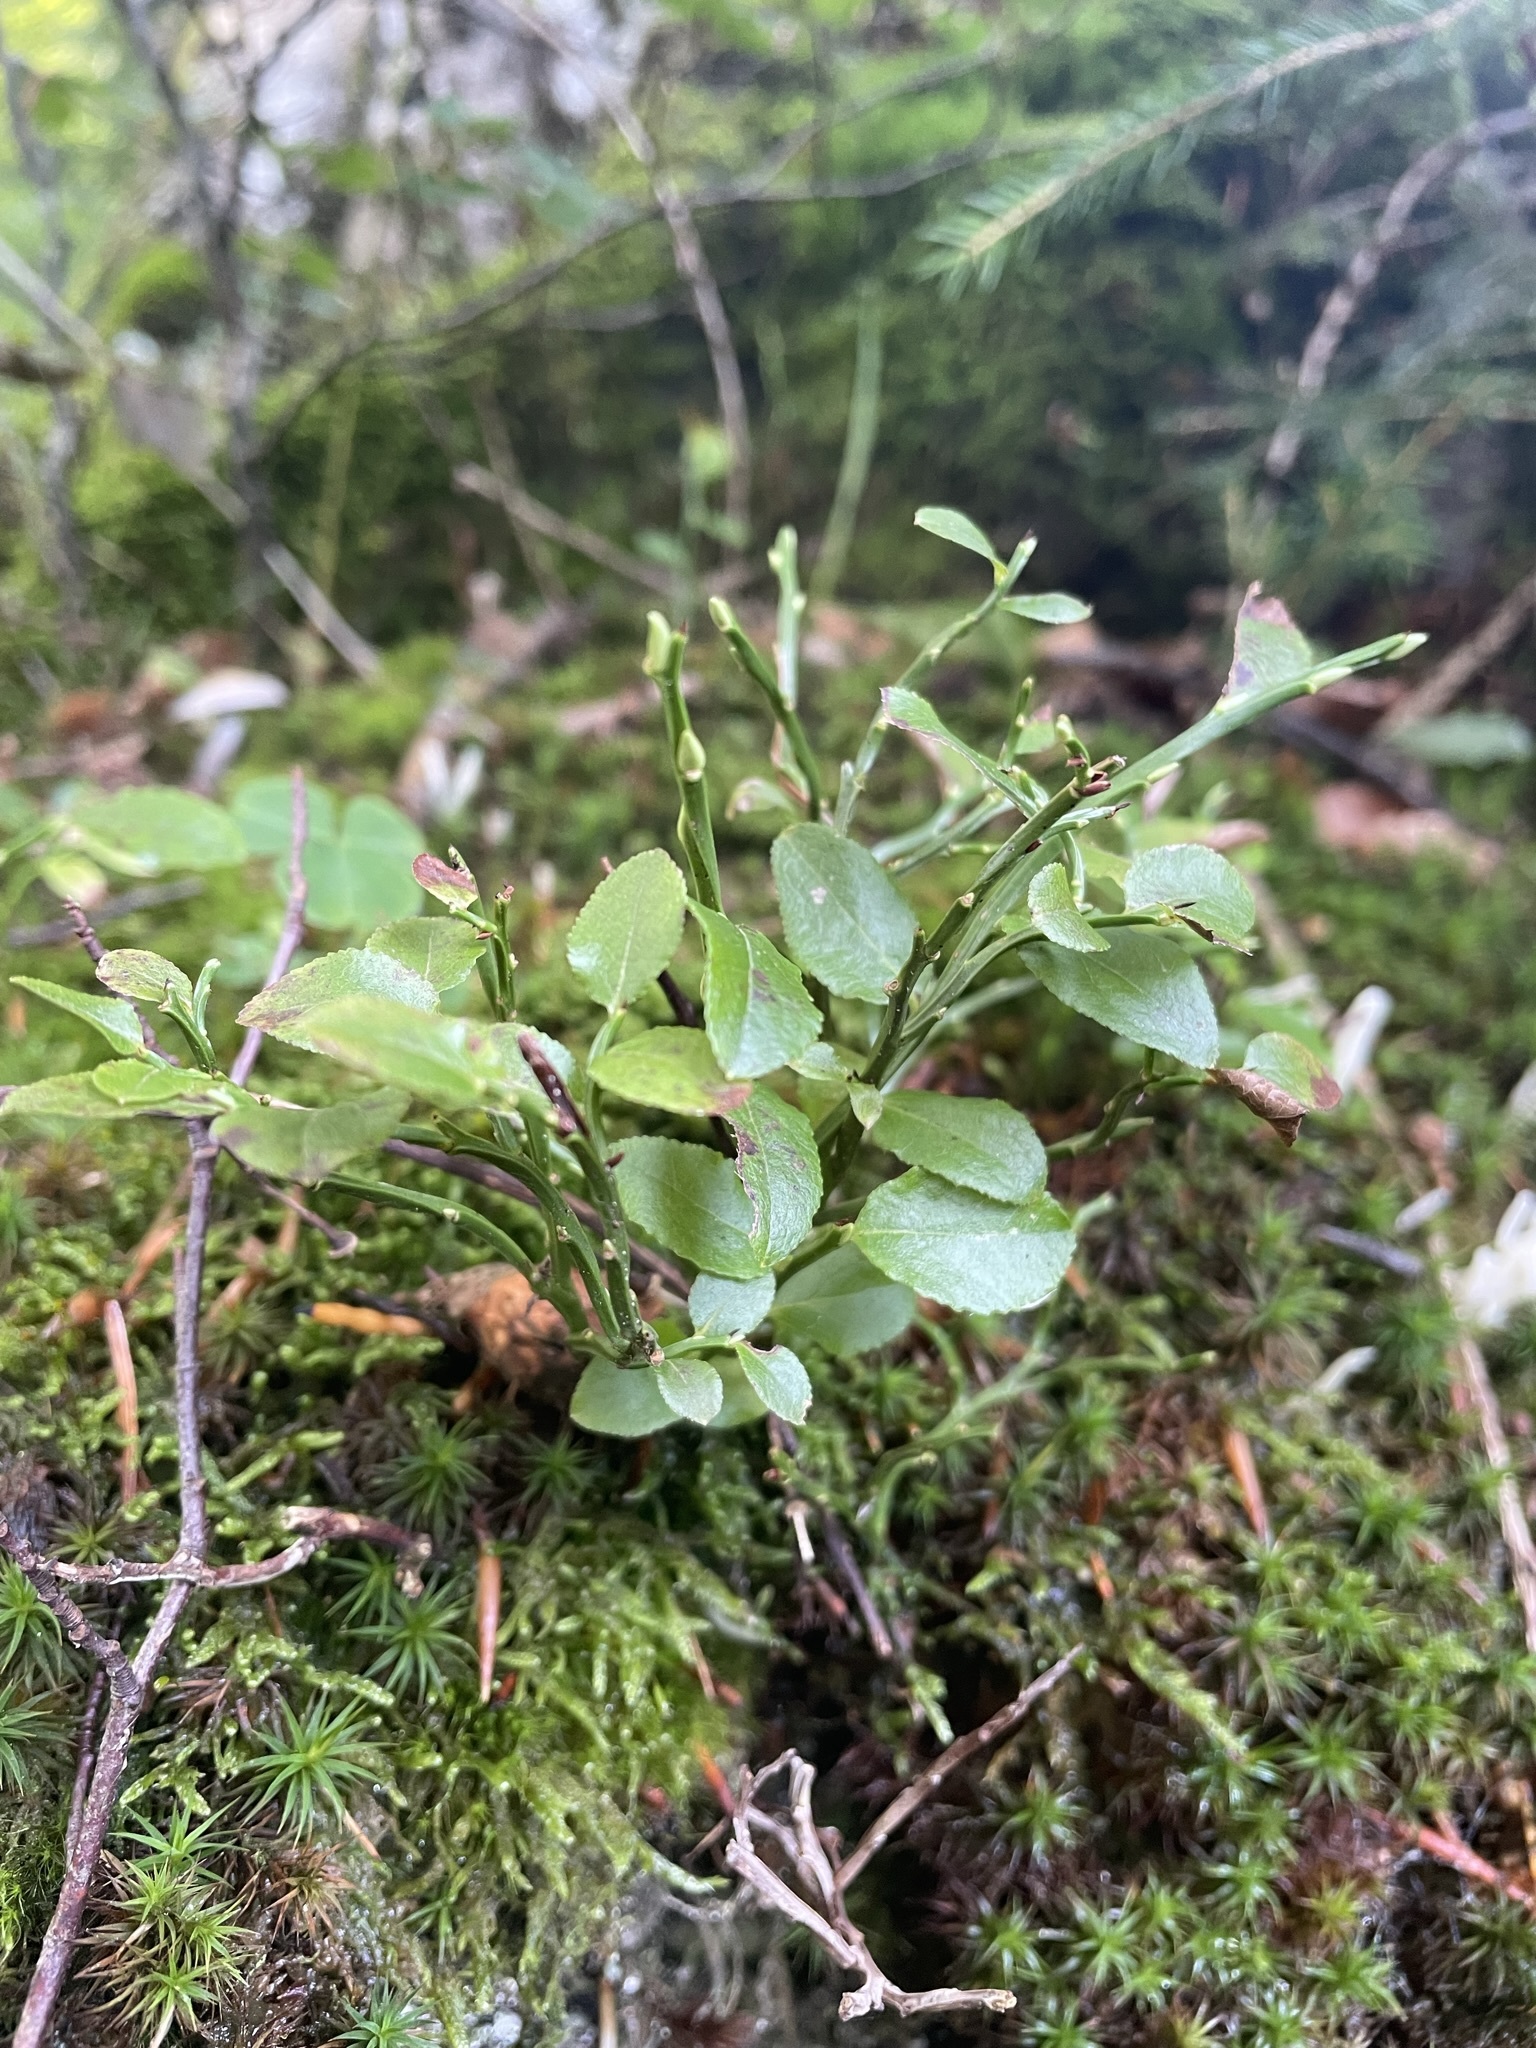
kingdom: Plantae
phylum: Tracheophyta
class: Magnoliopsida
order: Ericales
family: Ericaceae
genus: Vaccinium
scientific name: Vaccinium myrtillus
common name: Bilberry
